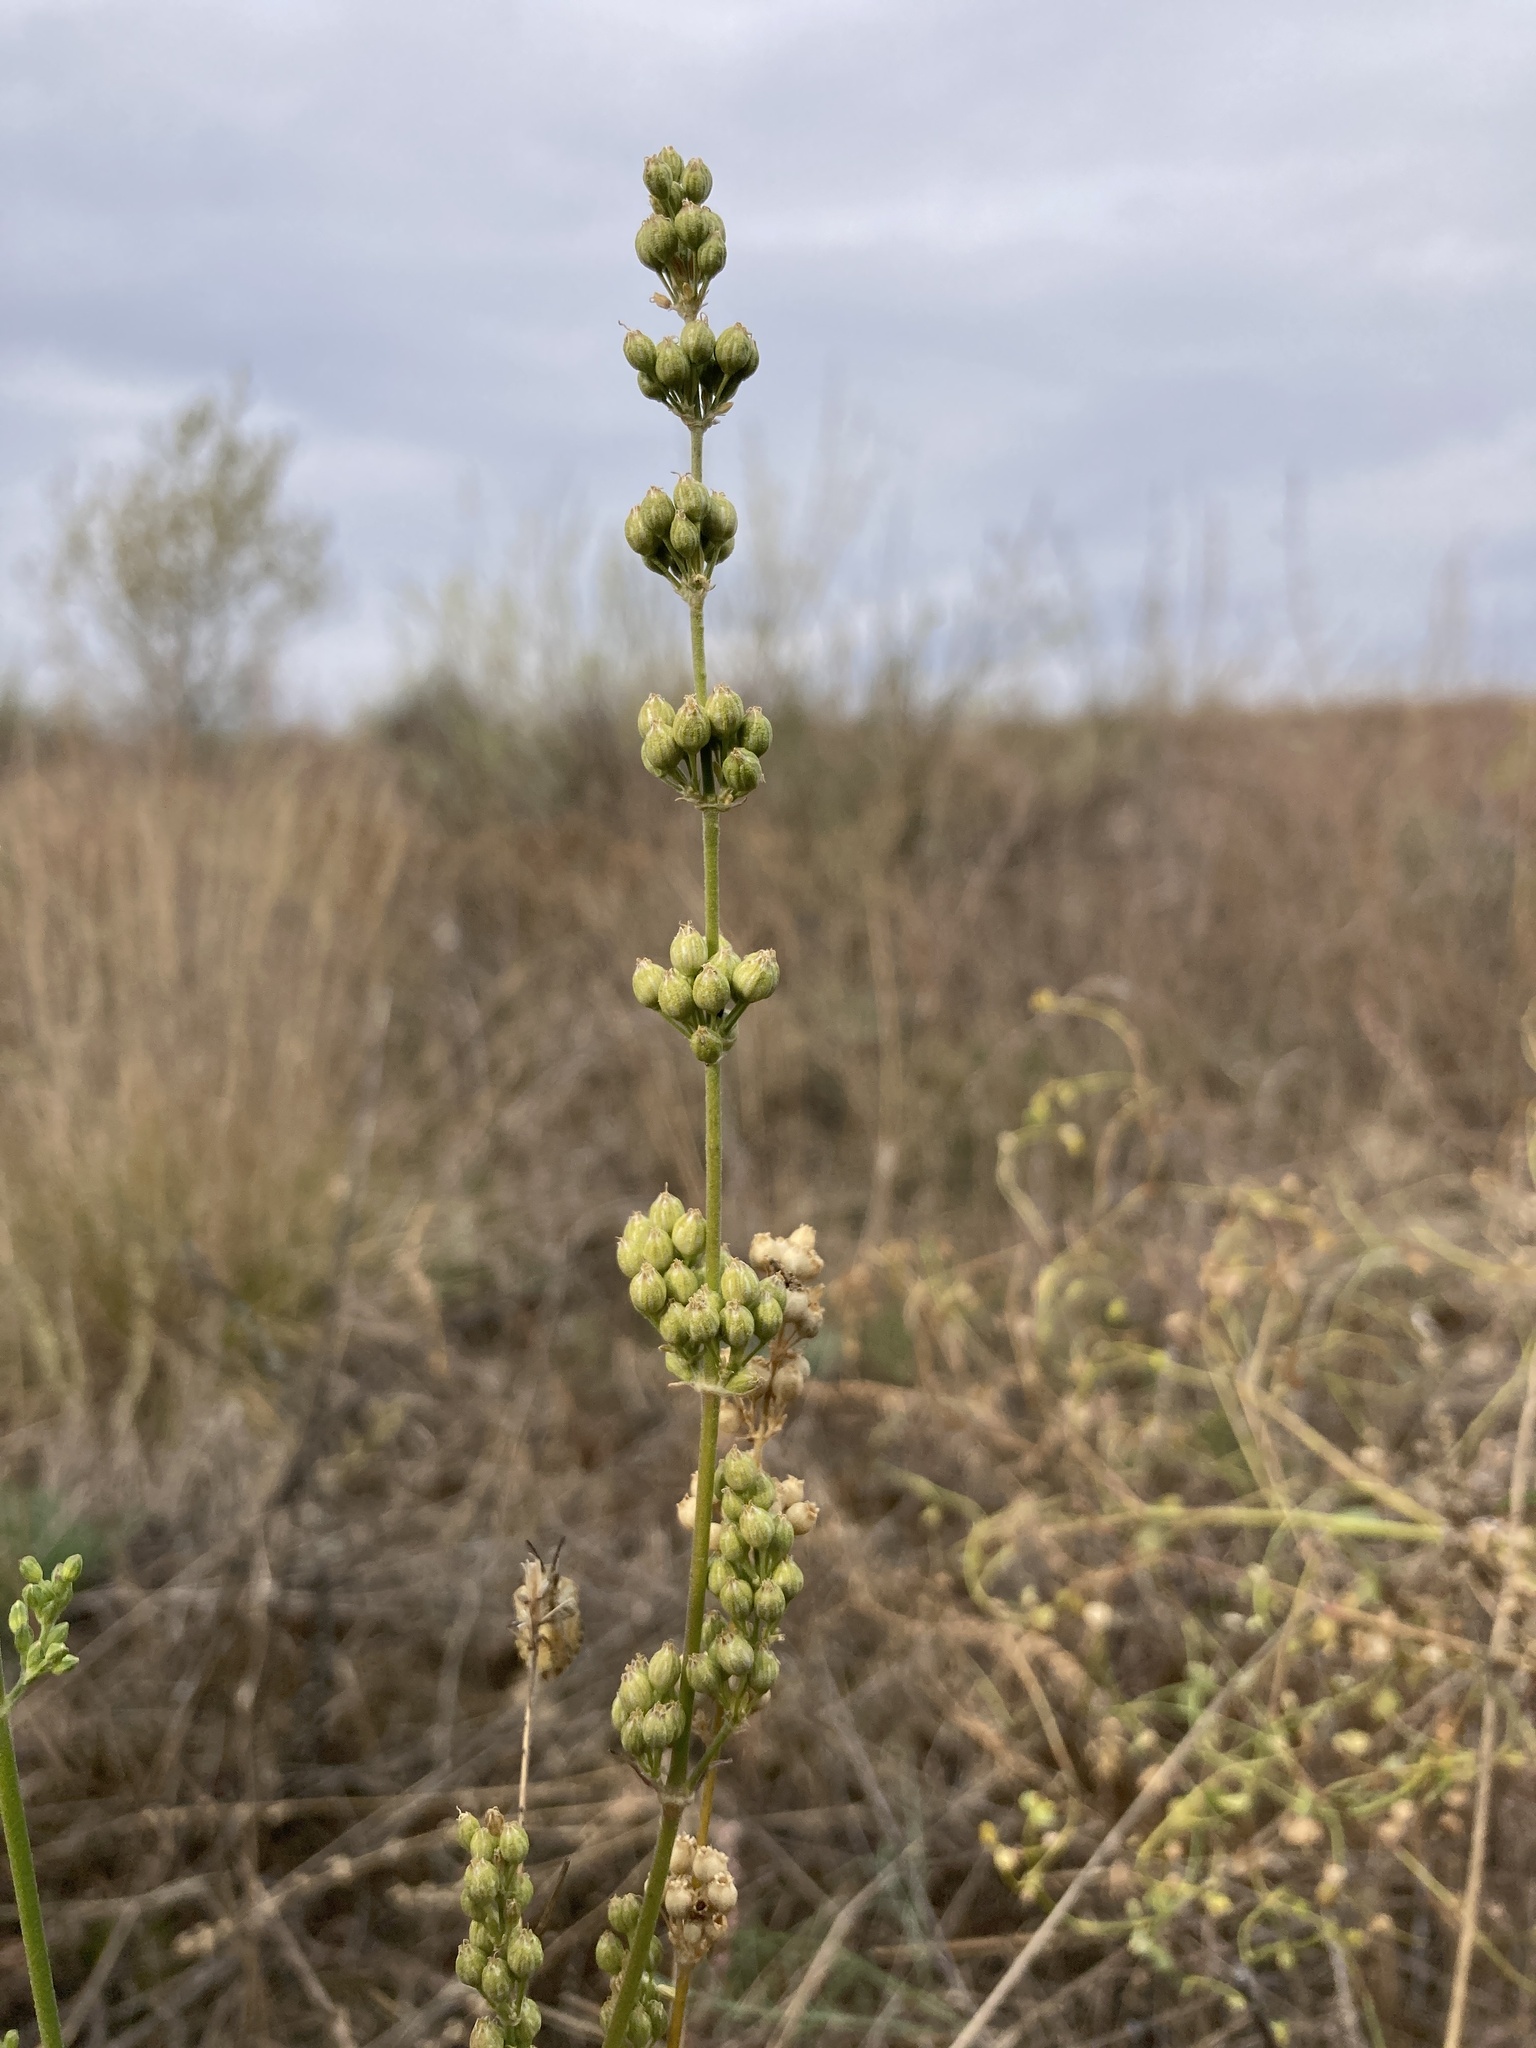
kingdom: Plantae
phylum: Tracheophyta
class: Magnoliopsida
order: Caryophyllales
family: Caryophyllaceae
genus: Silene
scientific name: Silene borysthenica
